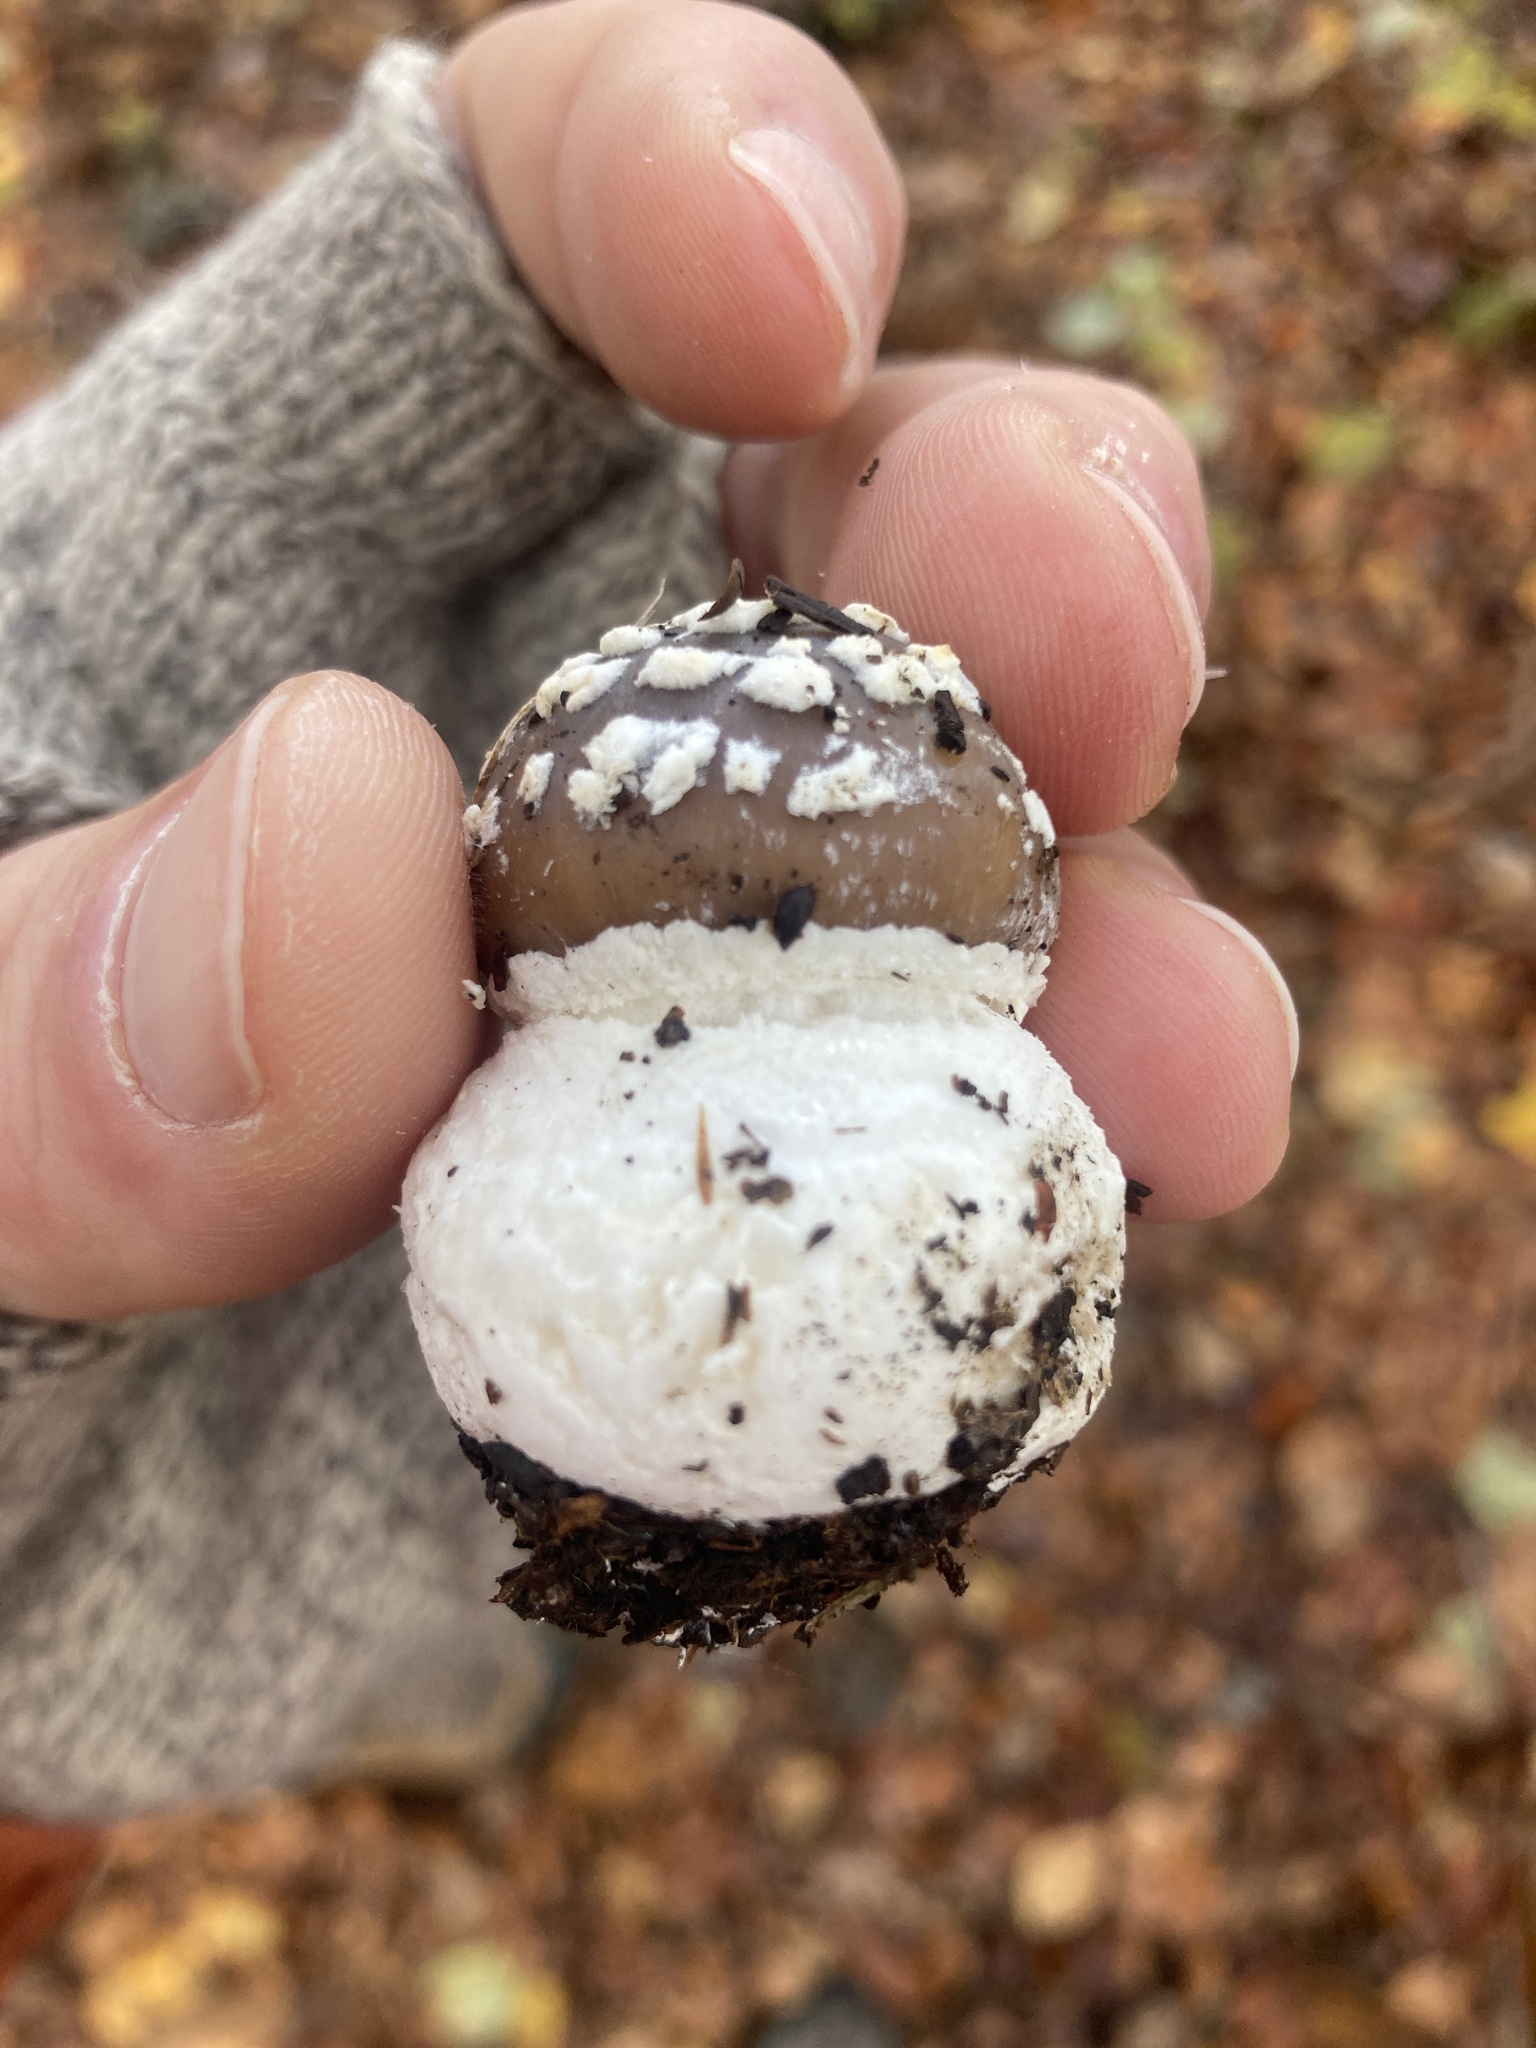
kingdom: Fungi
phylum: Basidiomycota
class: Agaricomycetes
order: Agaricales
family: Amanitaceae
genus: Amanita
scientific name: Amanita pantherina
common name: Panthercap
